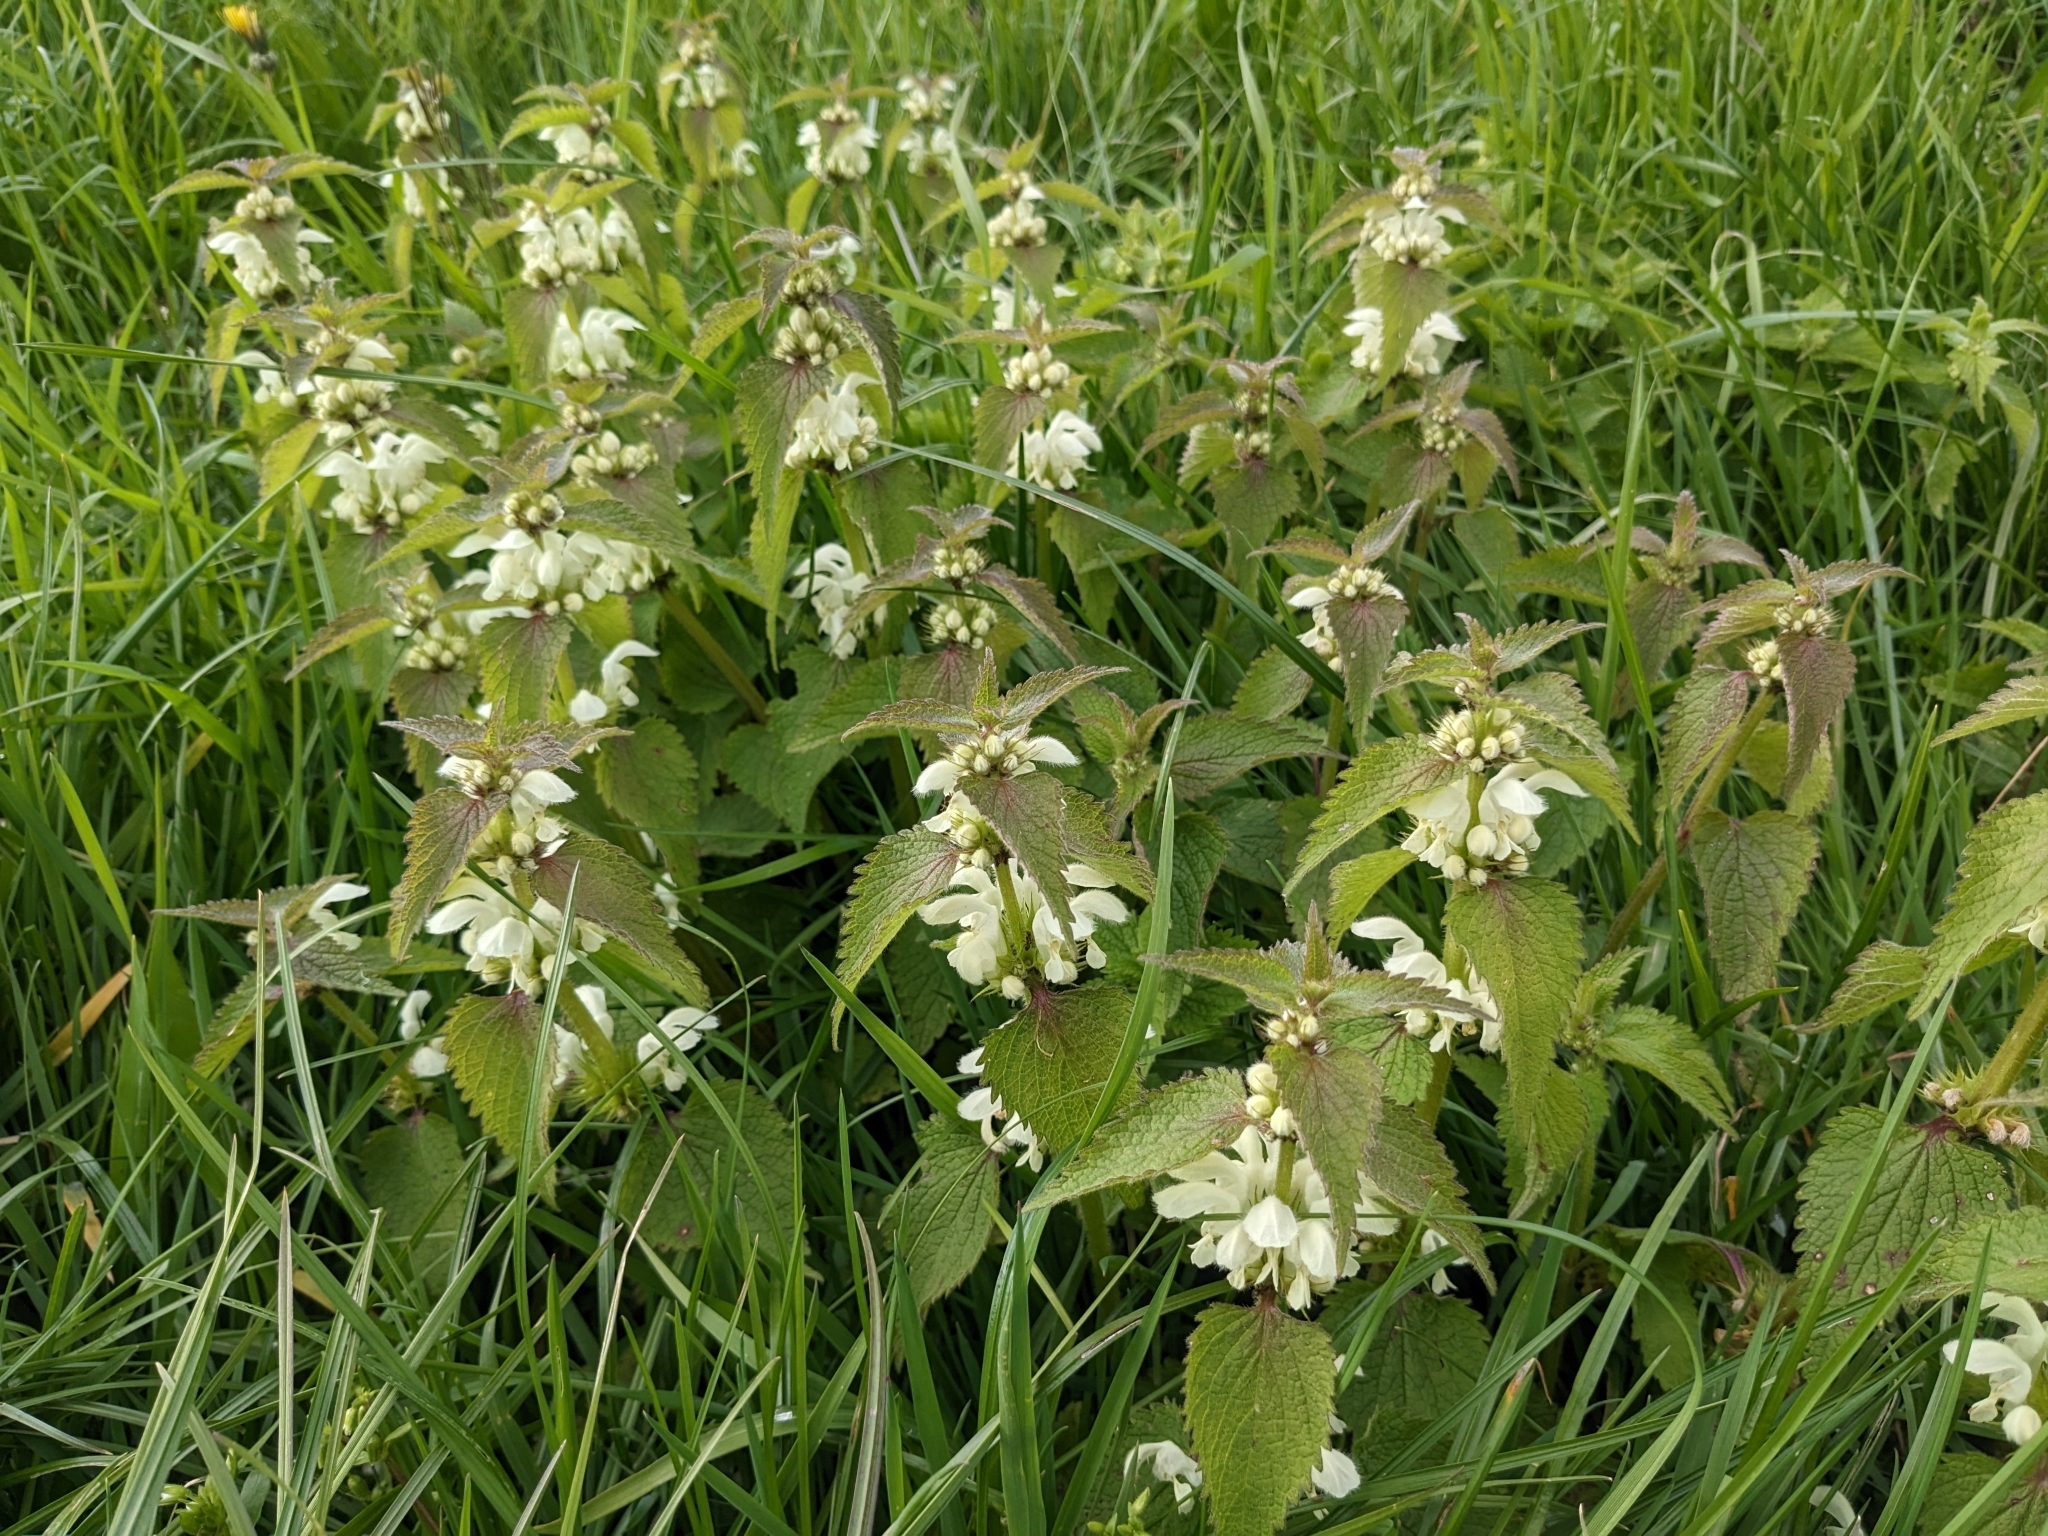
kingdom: Plantae
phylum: Tracheophyta
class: Magnoliopsida
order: Lamiales
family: Lamiaceae
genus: Lamium
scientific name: Lamium album
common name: White dead-nettle
